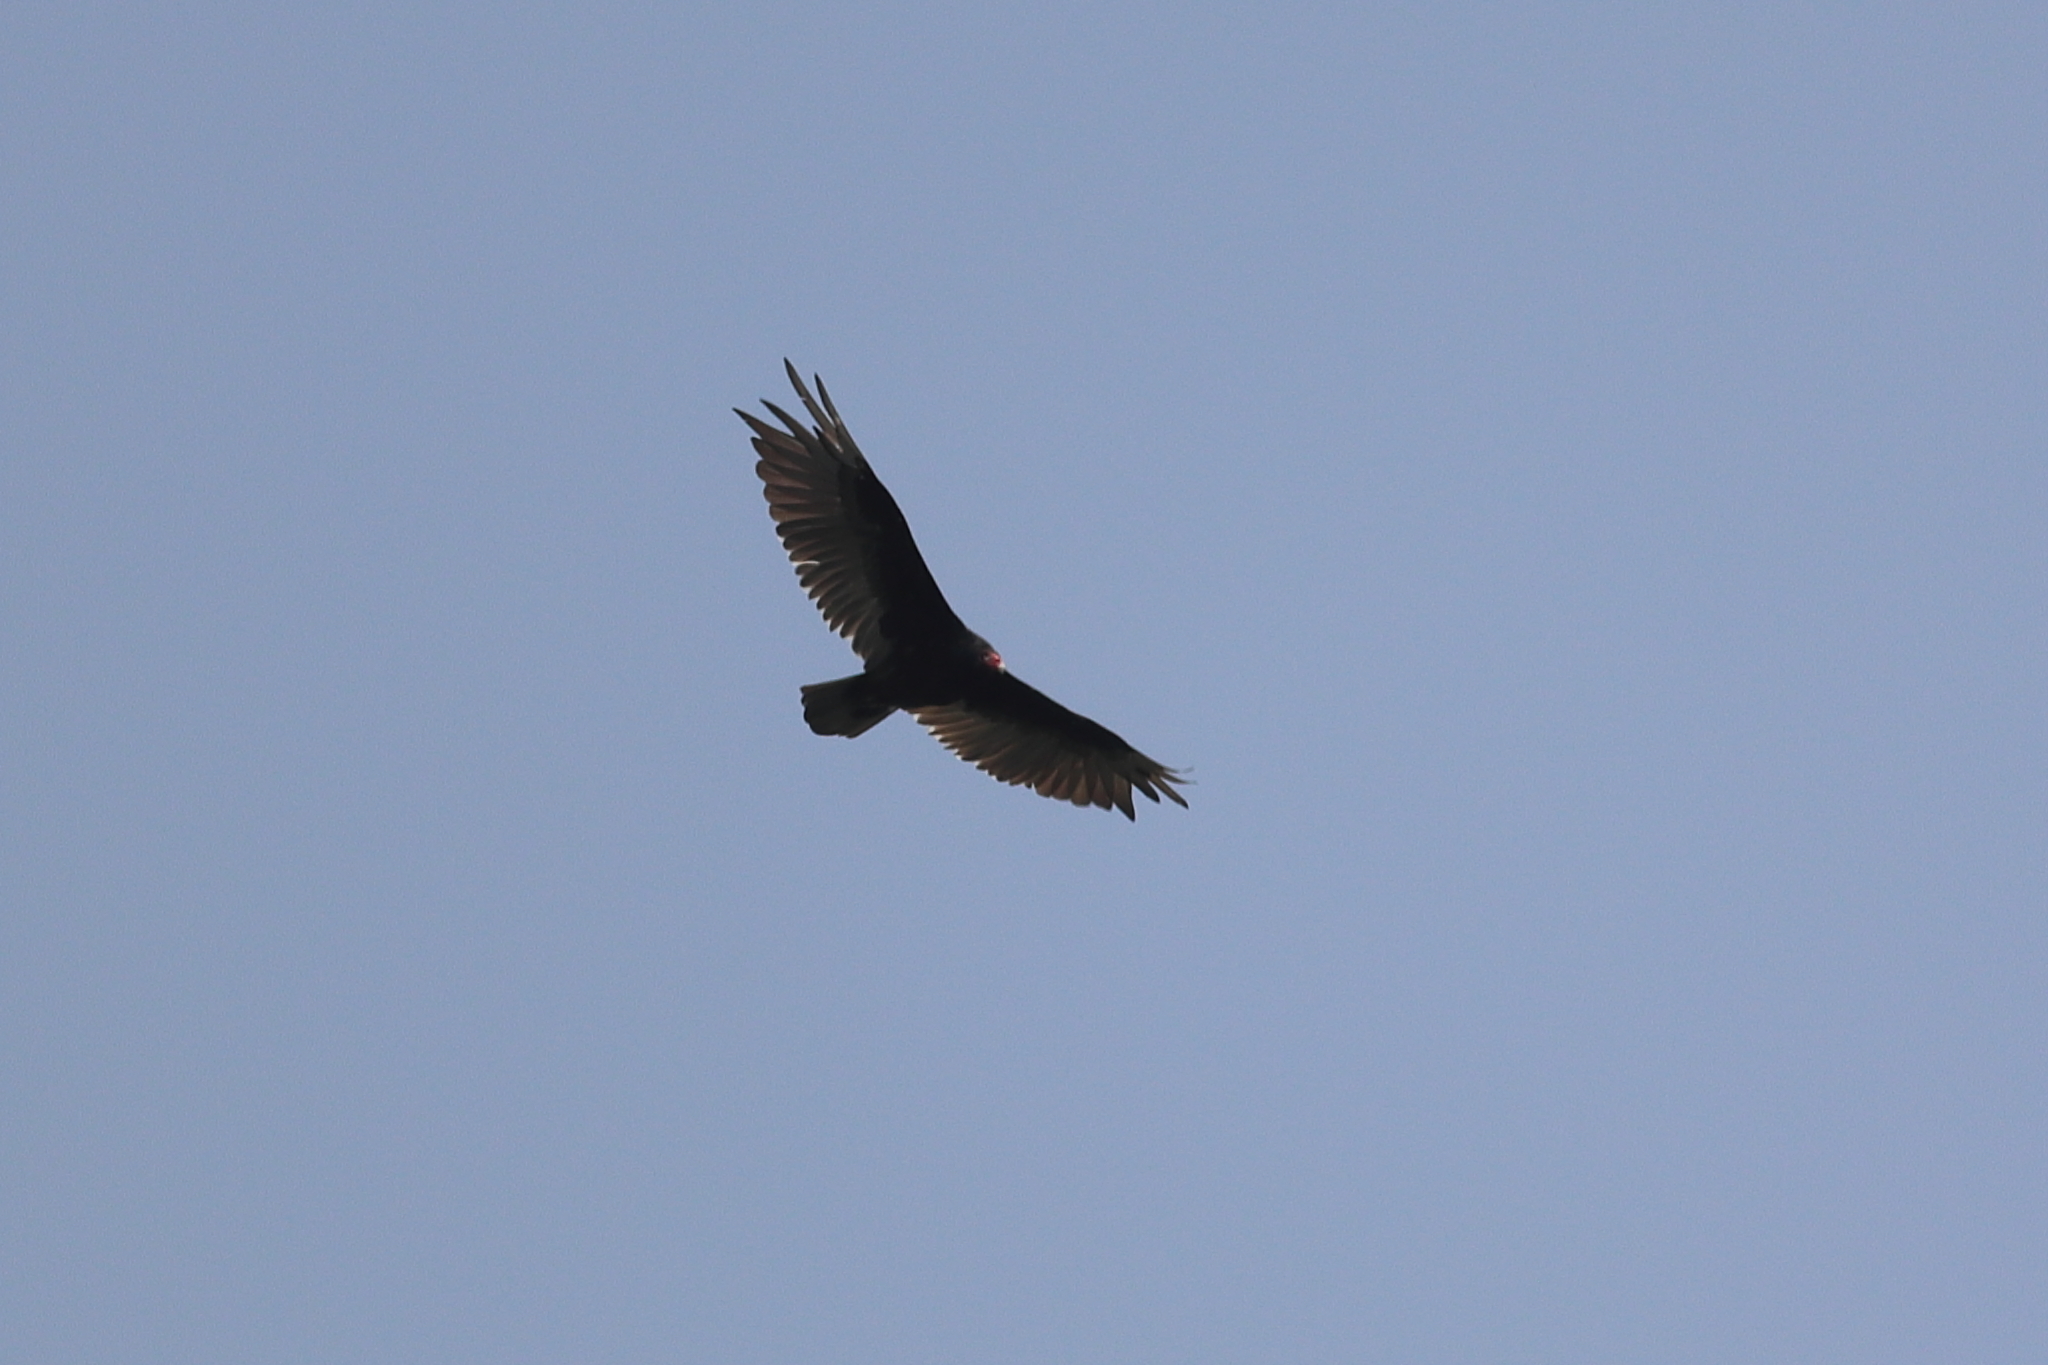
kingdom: Animalia
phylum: Chordata
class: Aves
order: Accipitriformes
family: Cathartidae
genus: Cathartes
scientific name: Cathartes aura
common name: Turkey vulture
